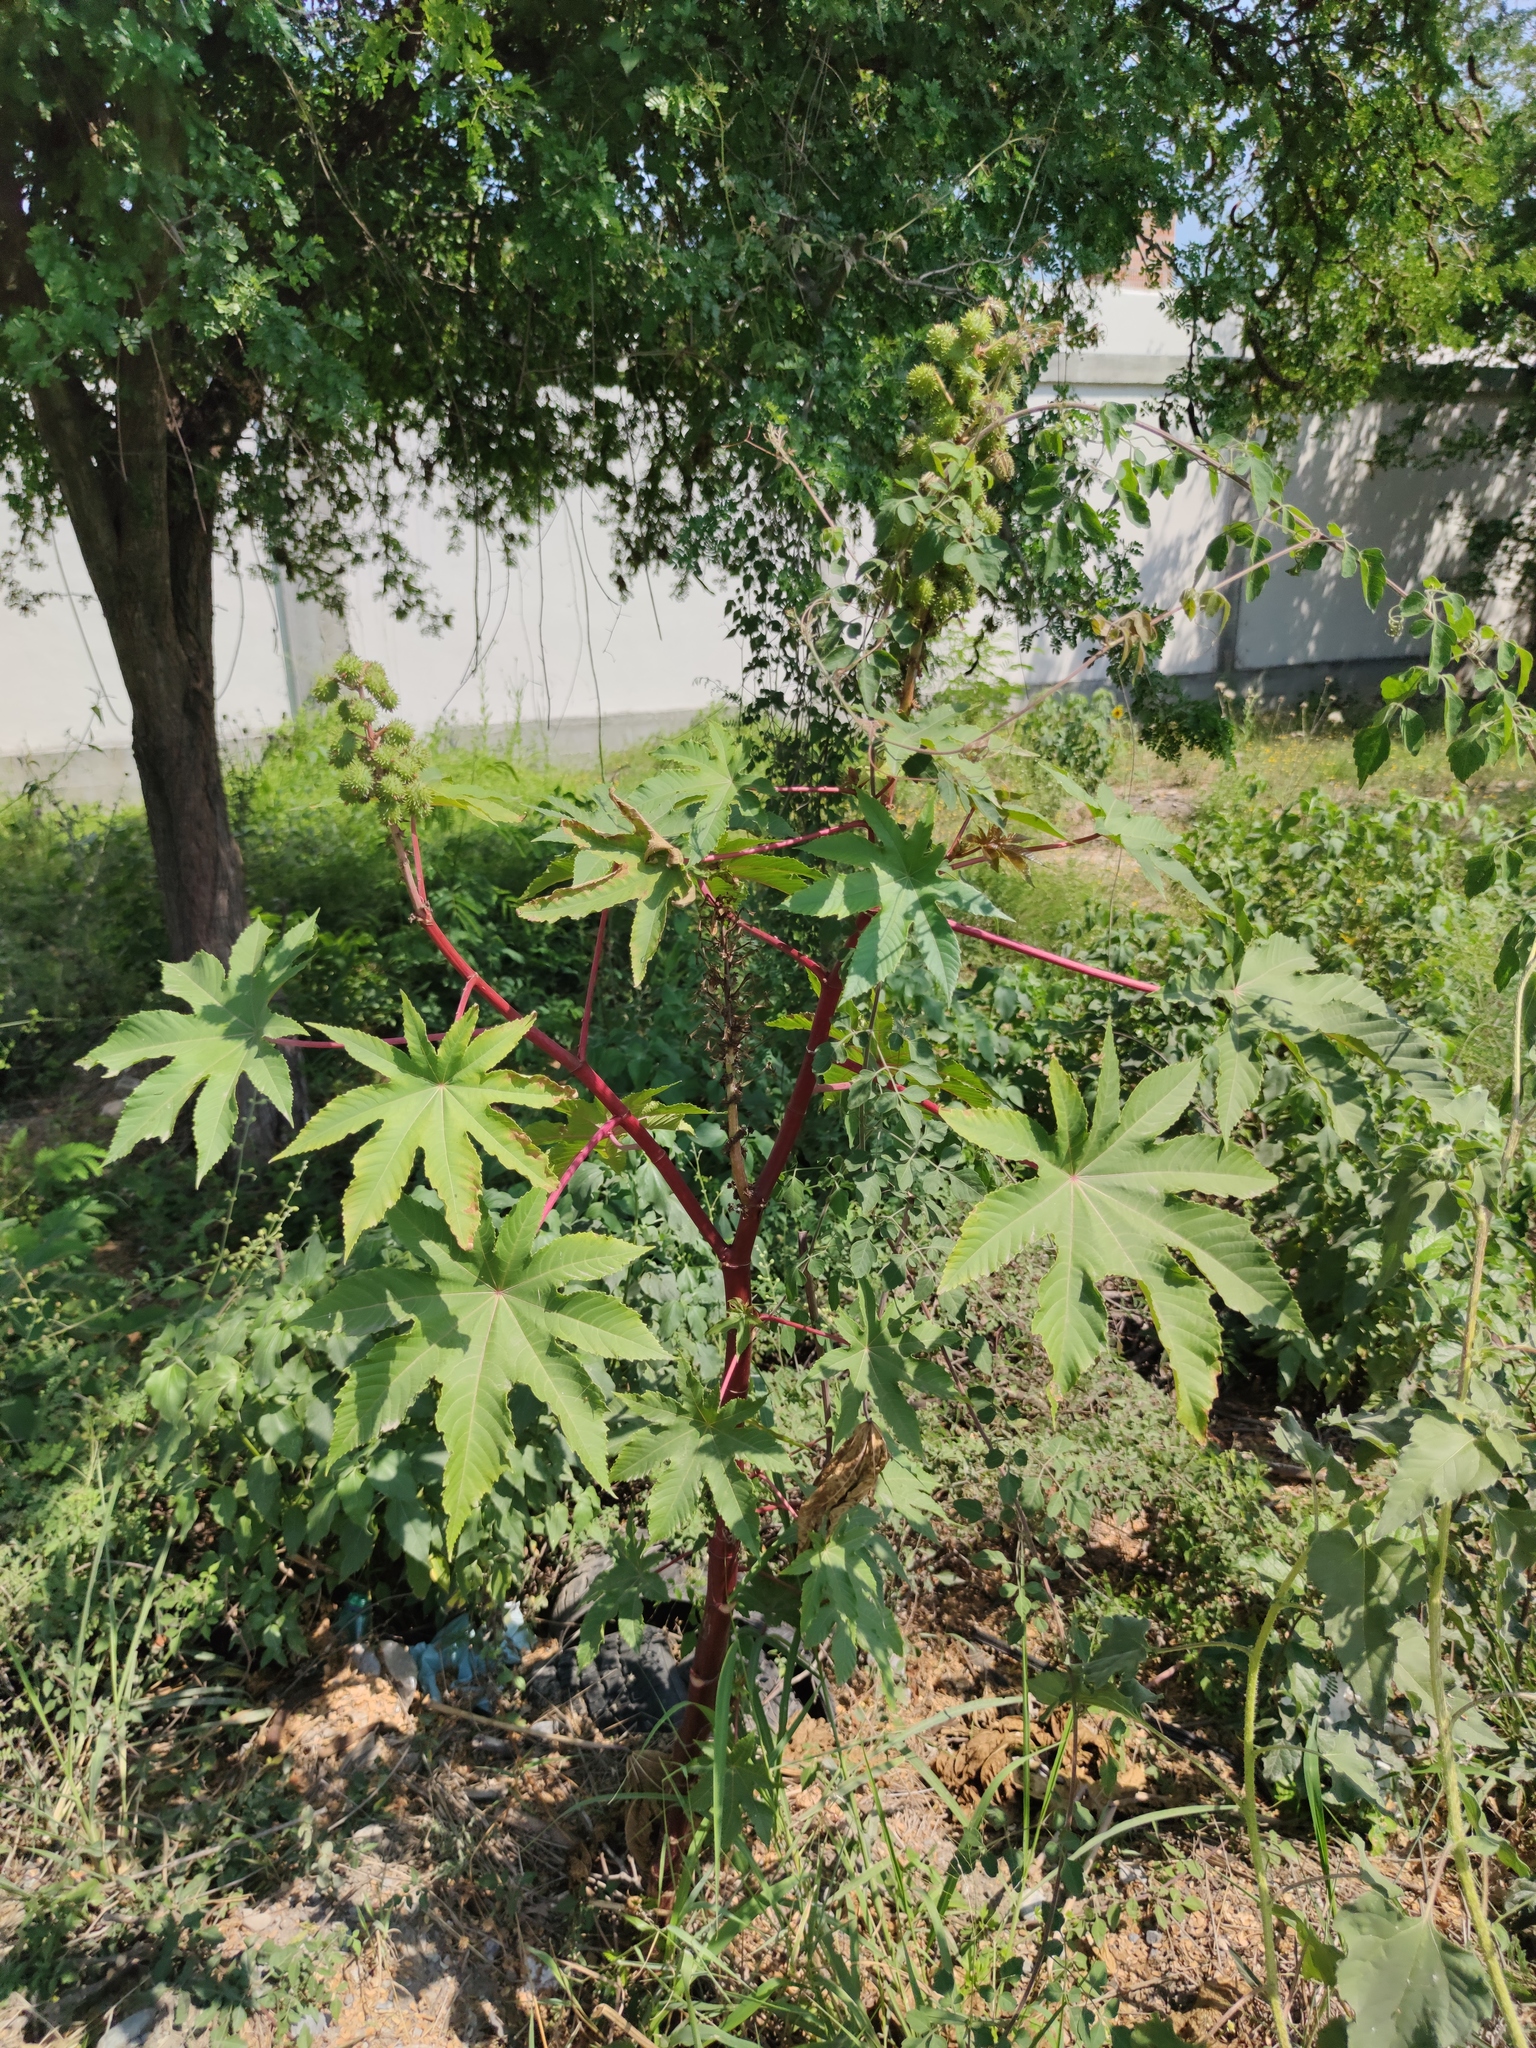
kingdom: Plantae
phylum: Tracheophyta
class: Magnoliopsida
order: Malpighiales
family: Euphorbiaceae
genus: Ricinus
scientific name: Ricinus communis
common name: Castor-oil-plant
